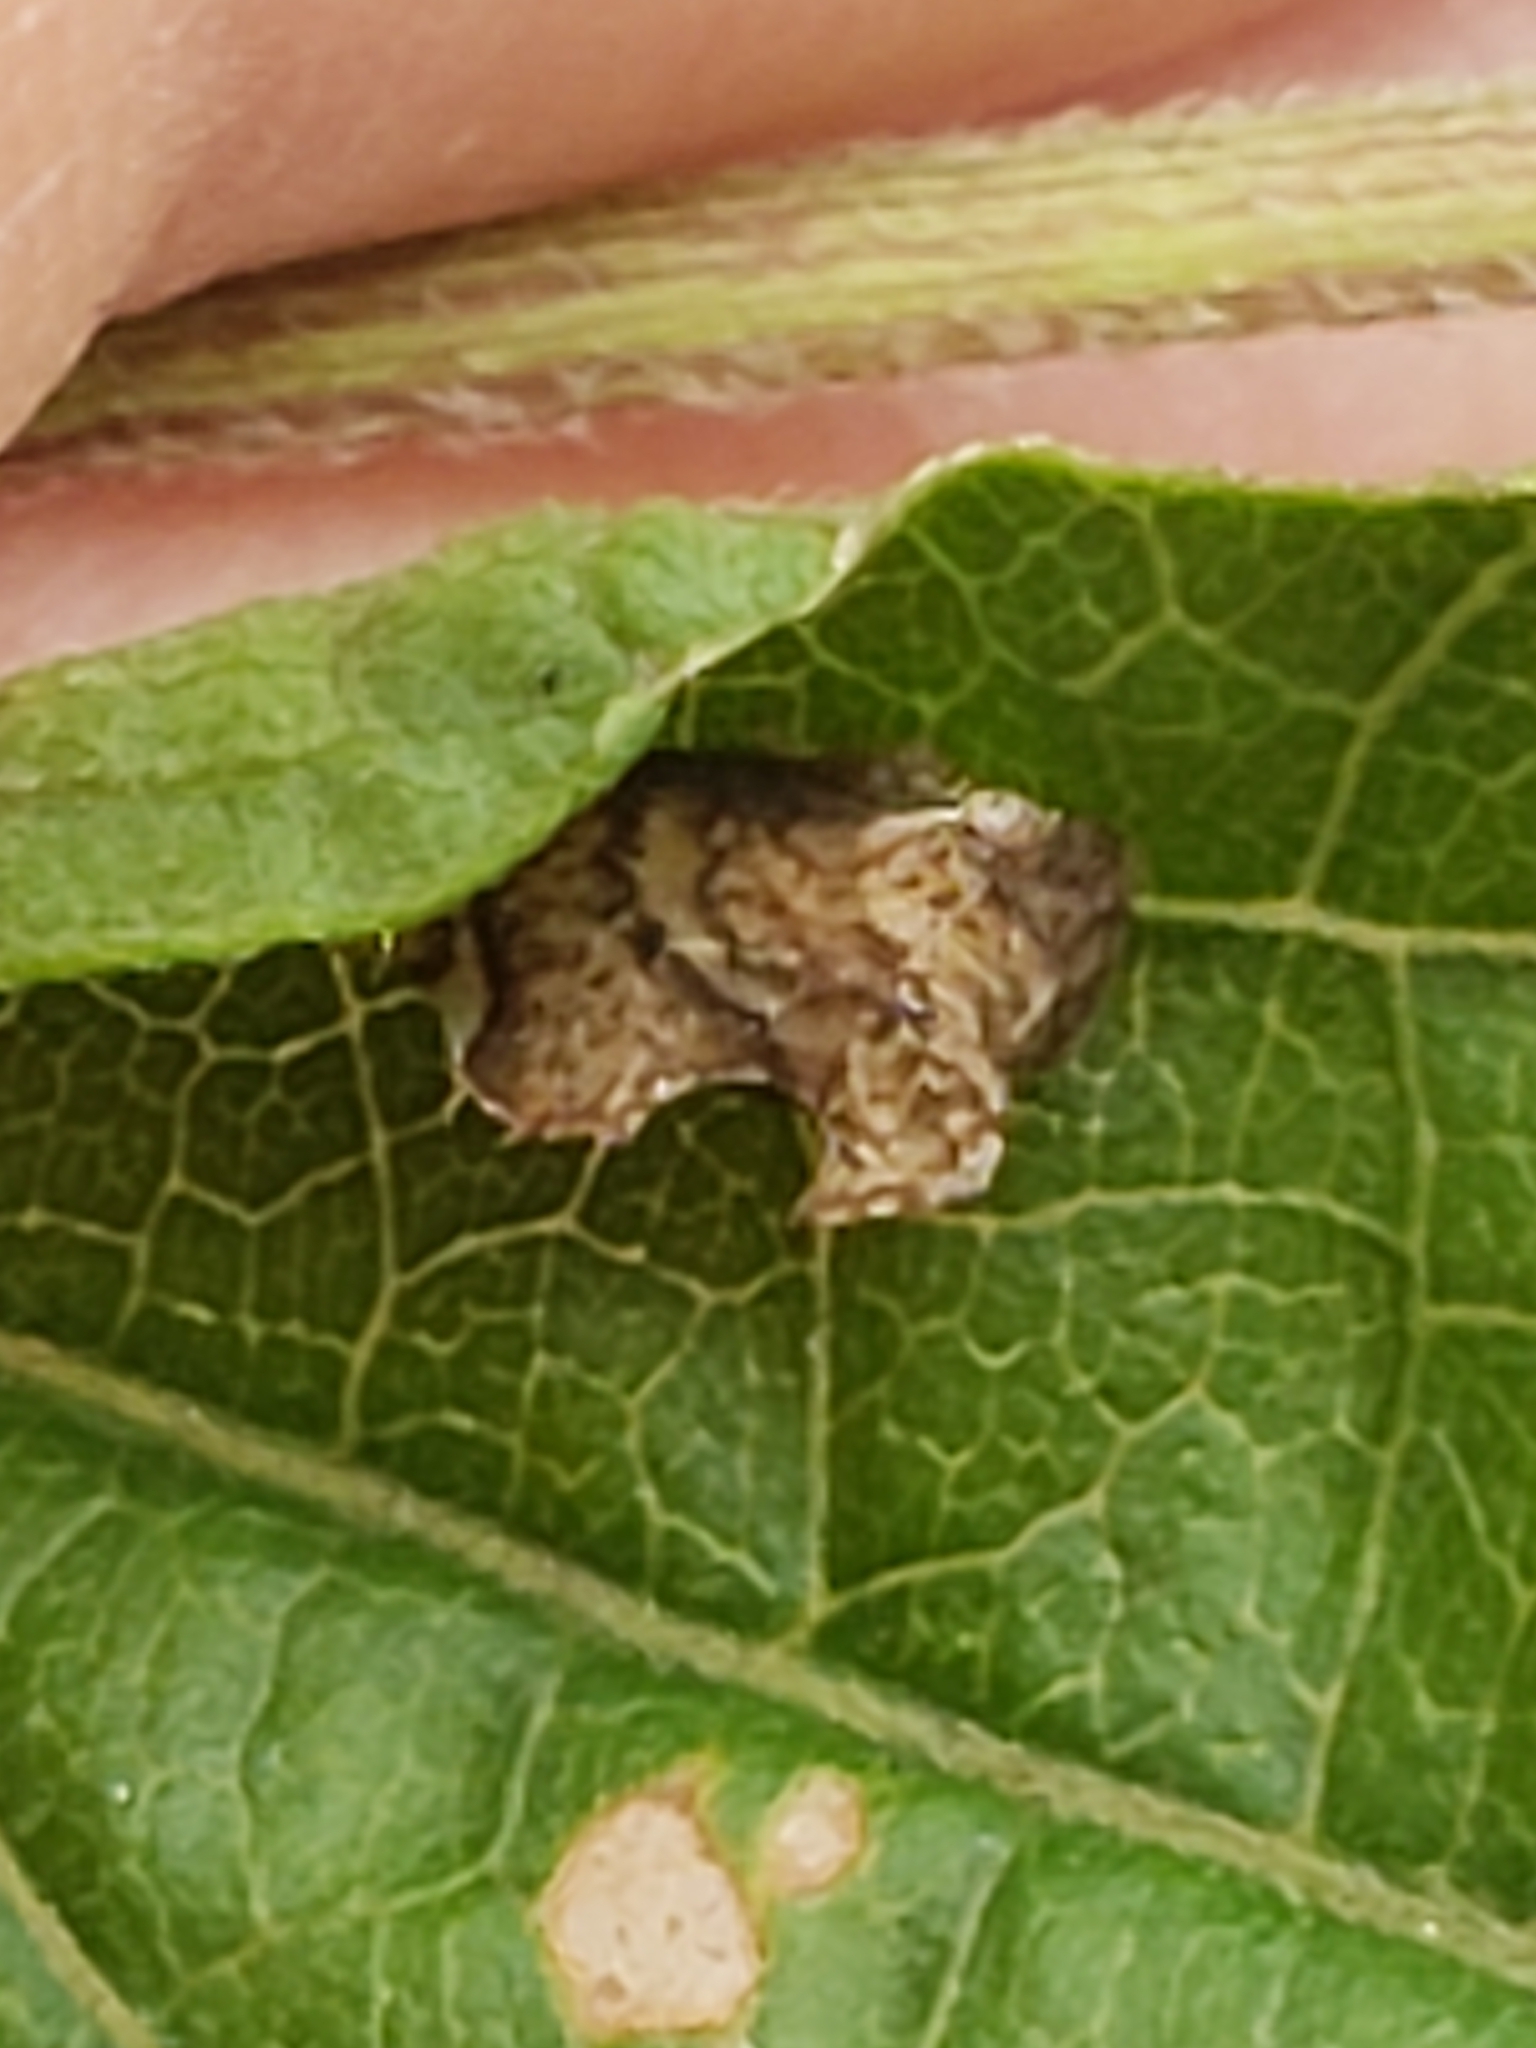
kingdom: Animalia
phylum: Arthropoda
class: Insecta
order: Hemiptera
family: Membracidae
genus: Entylia
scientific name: Entylia carinata
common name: Keeled treehopper
